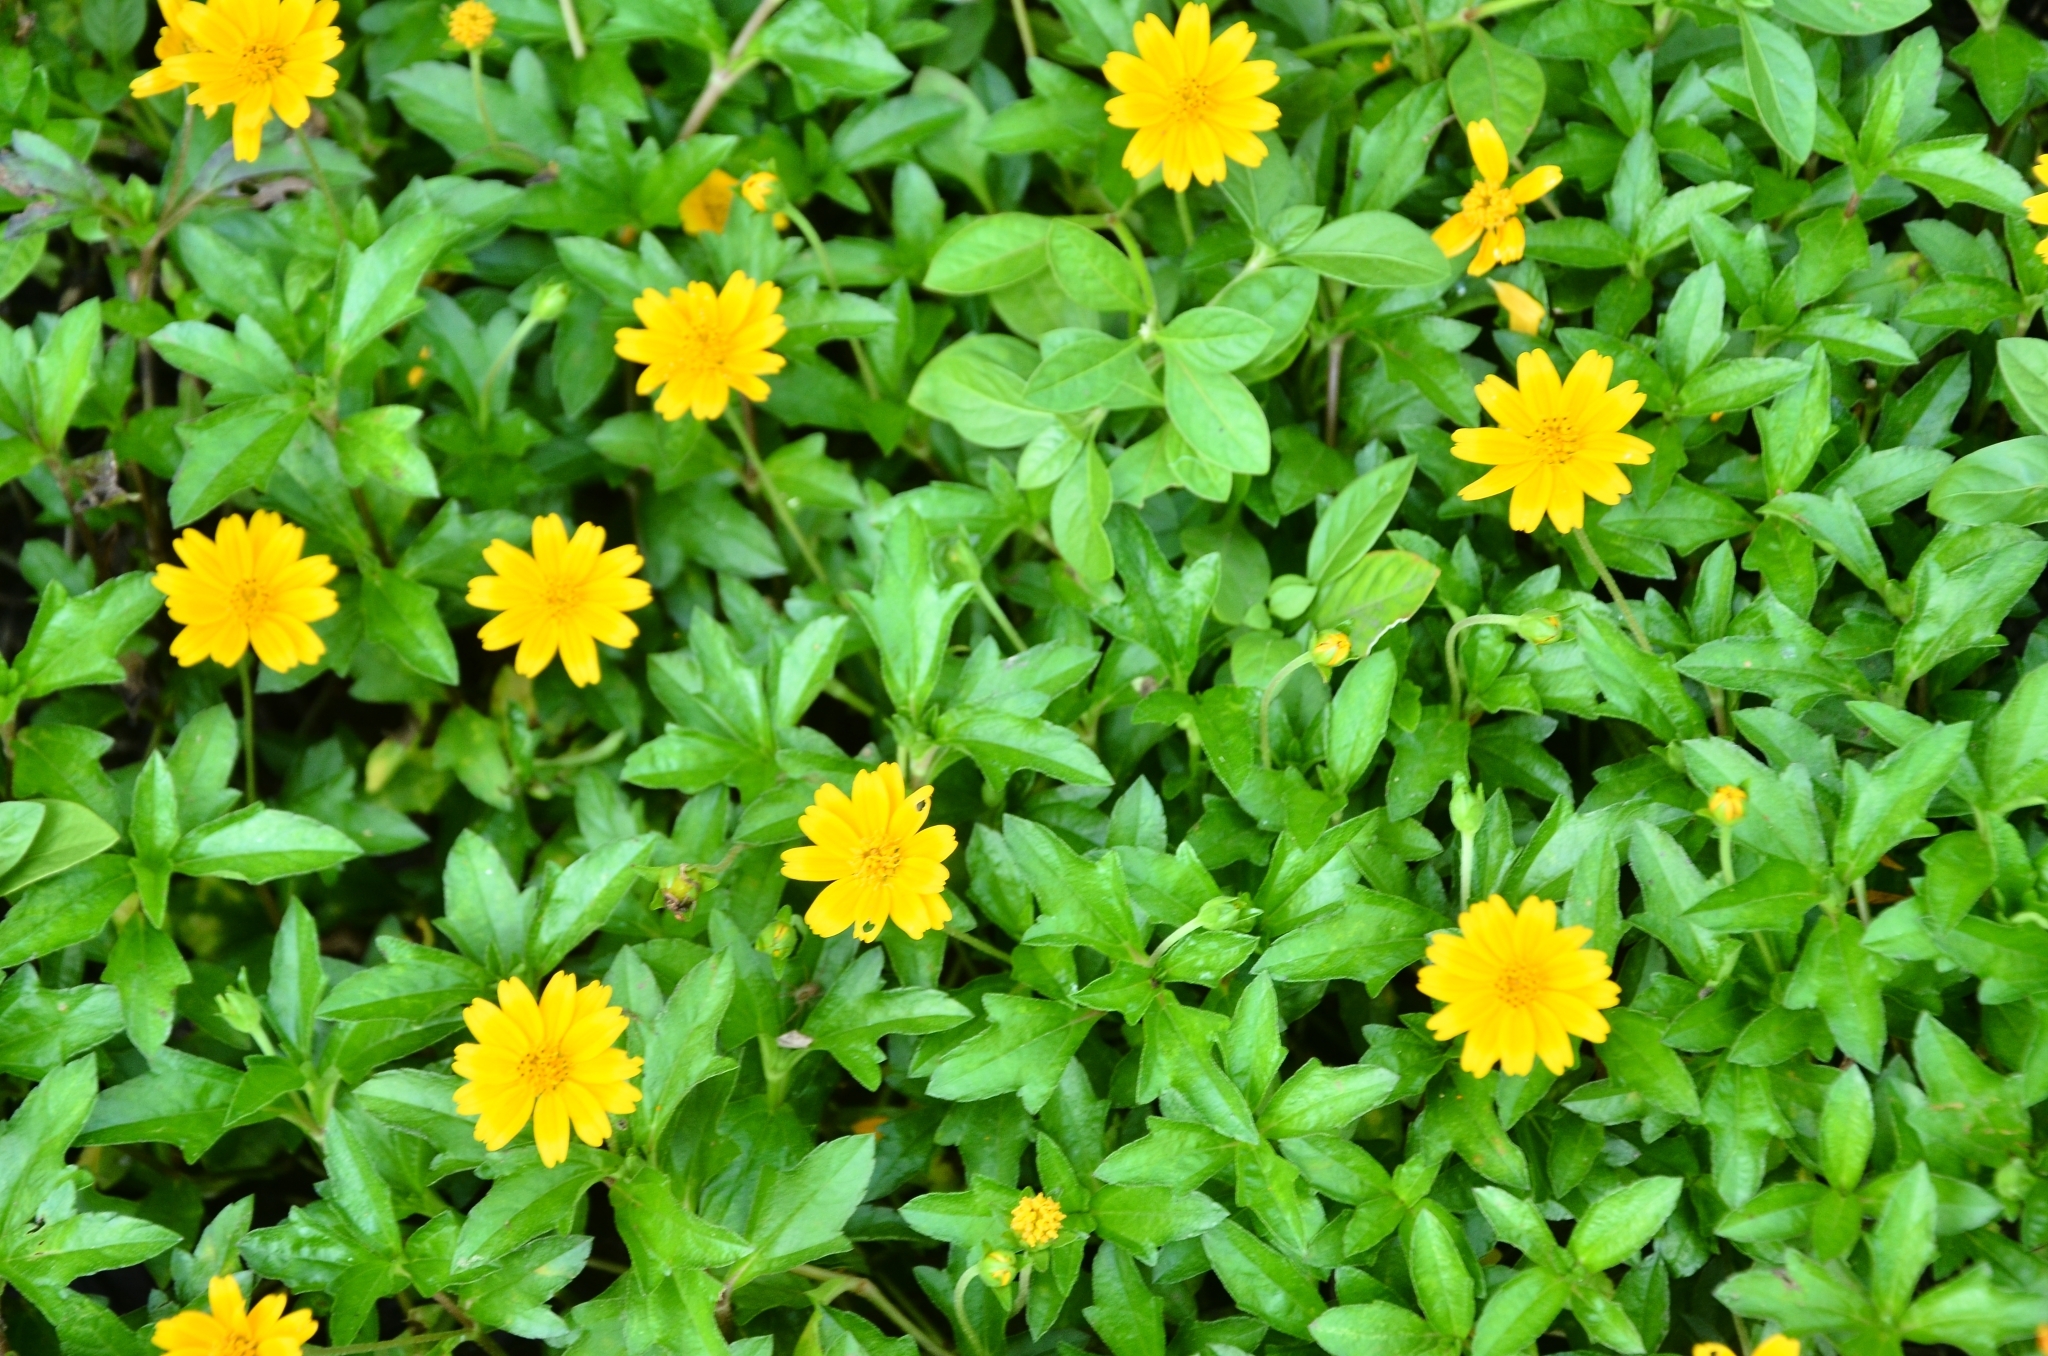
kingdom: Plantae
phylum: Tracheophyta
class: Magnoliopsida
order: Asterales
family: Asteraceae
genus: Sphagneticola
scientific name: Sphagneticola trilobata
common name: Bay biscayne creeping-oxeye
